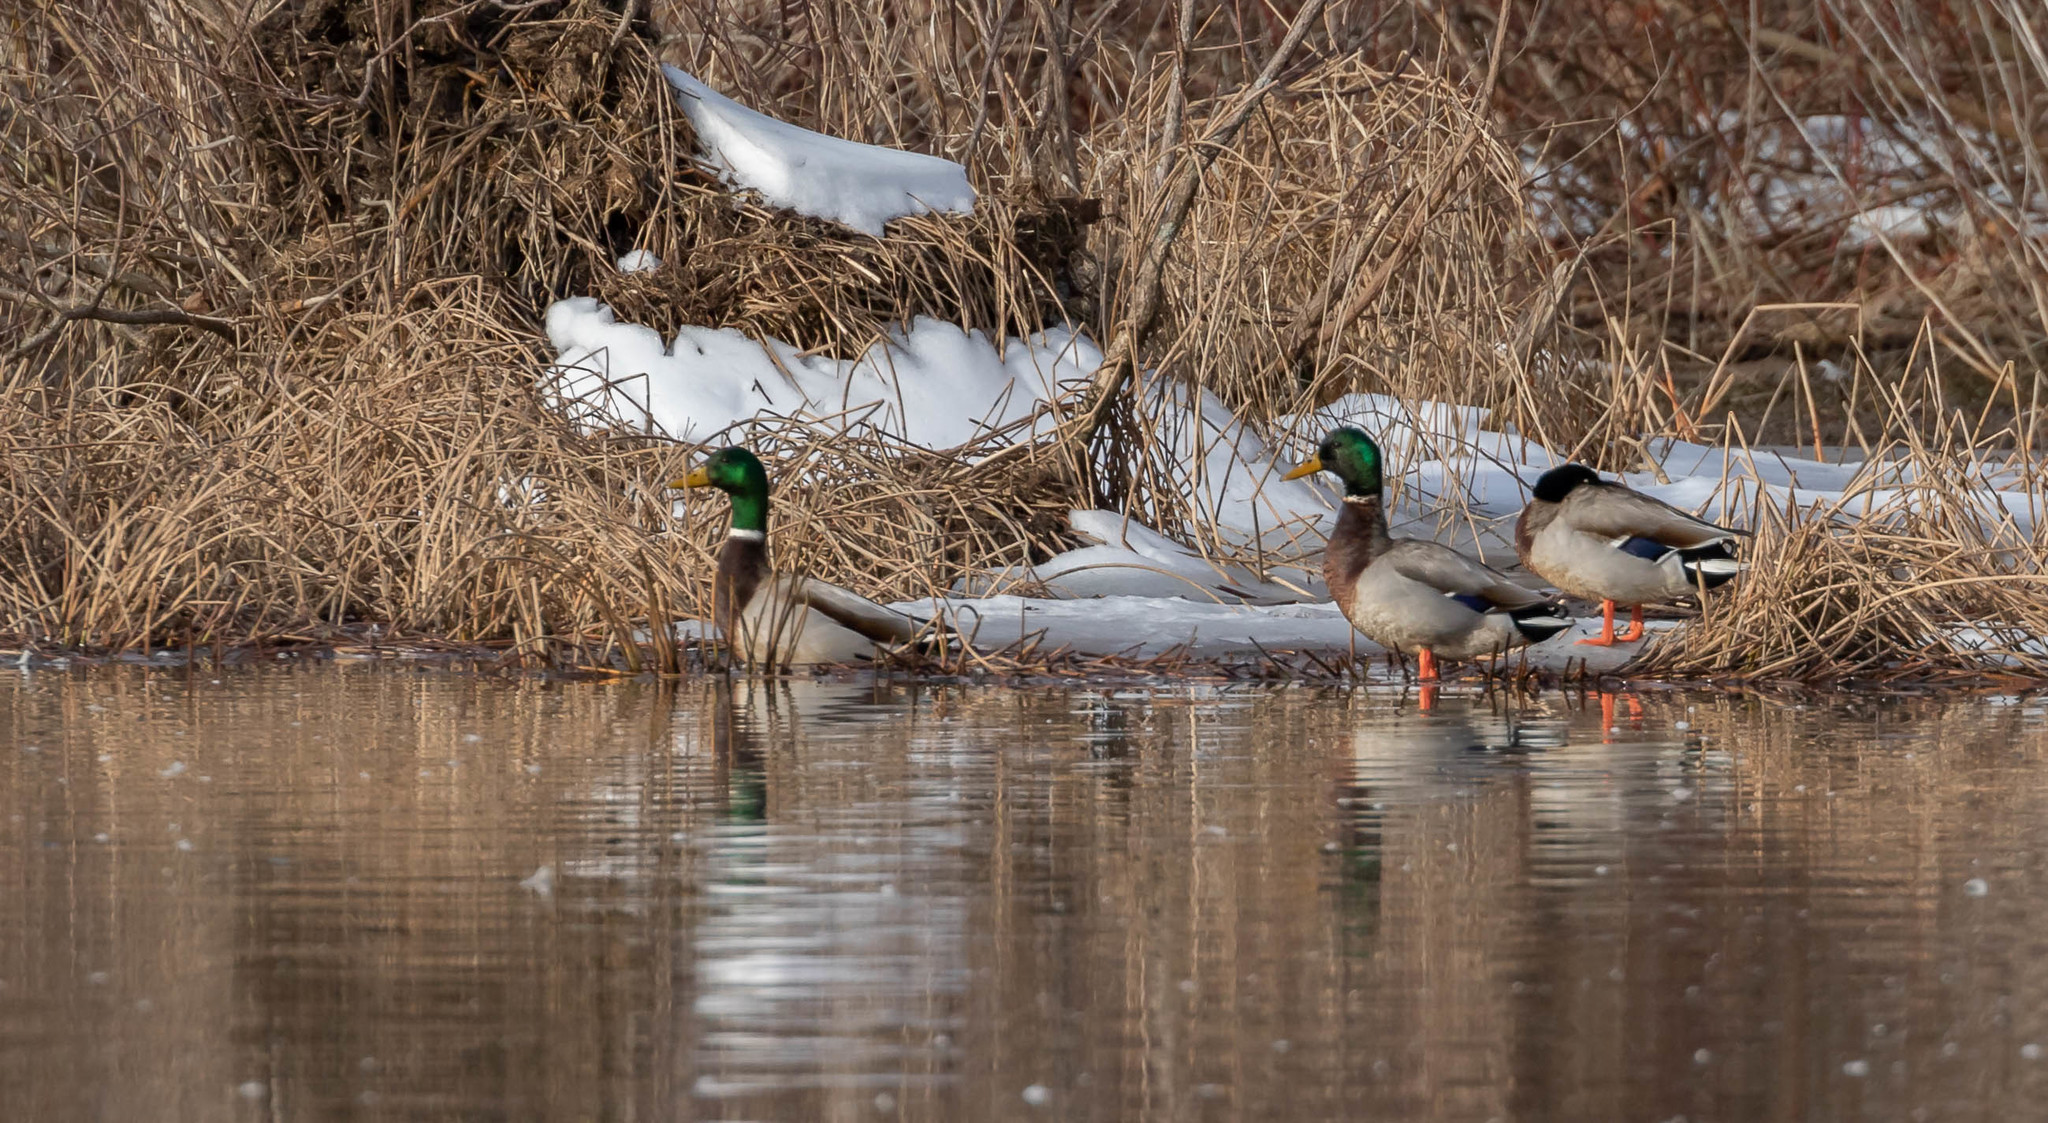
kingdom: Animalia
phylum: Chordata
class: Aves
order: Anseriformes
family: Anatidae
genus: Anas
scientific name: Anas platyrhynchos
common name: Mallard
